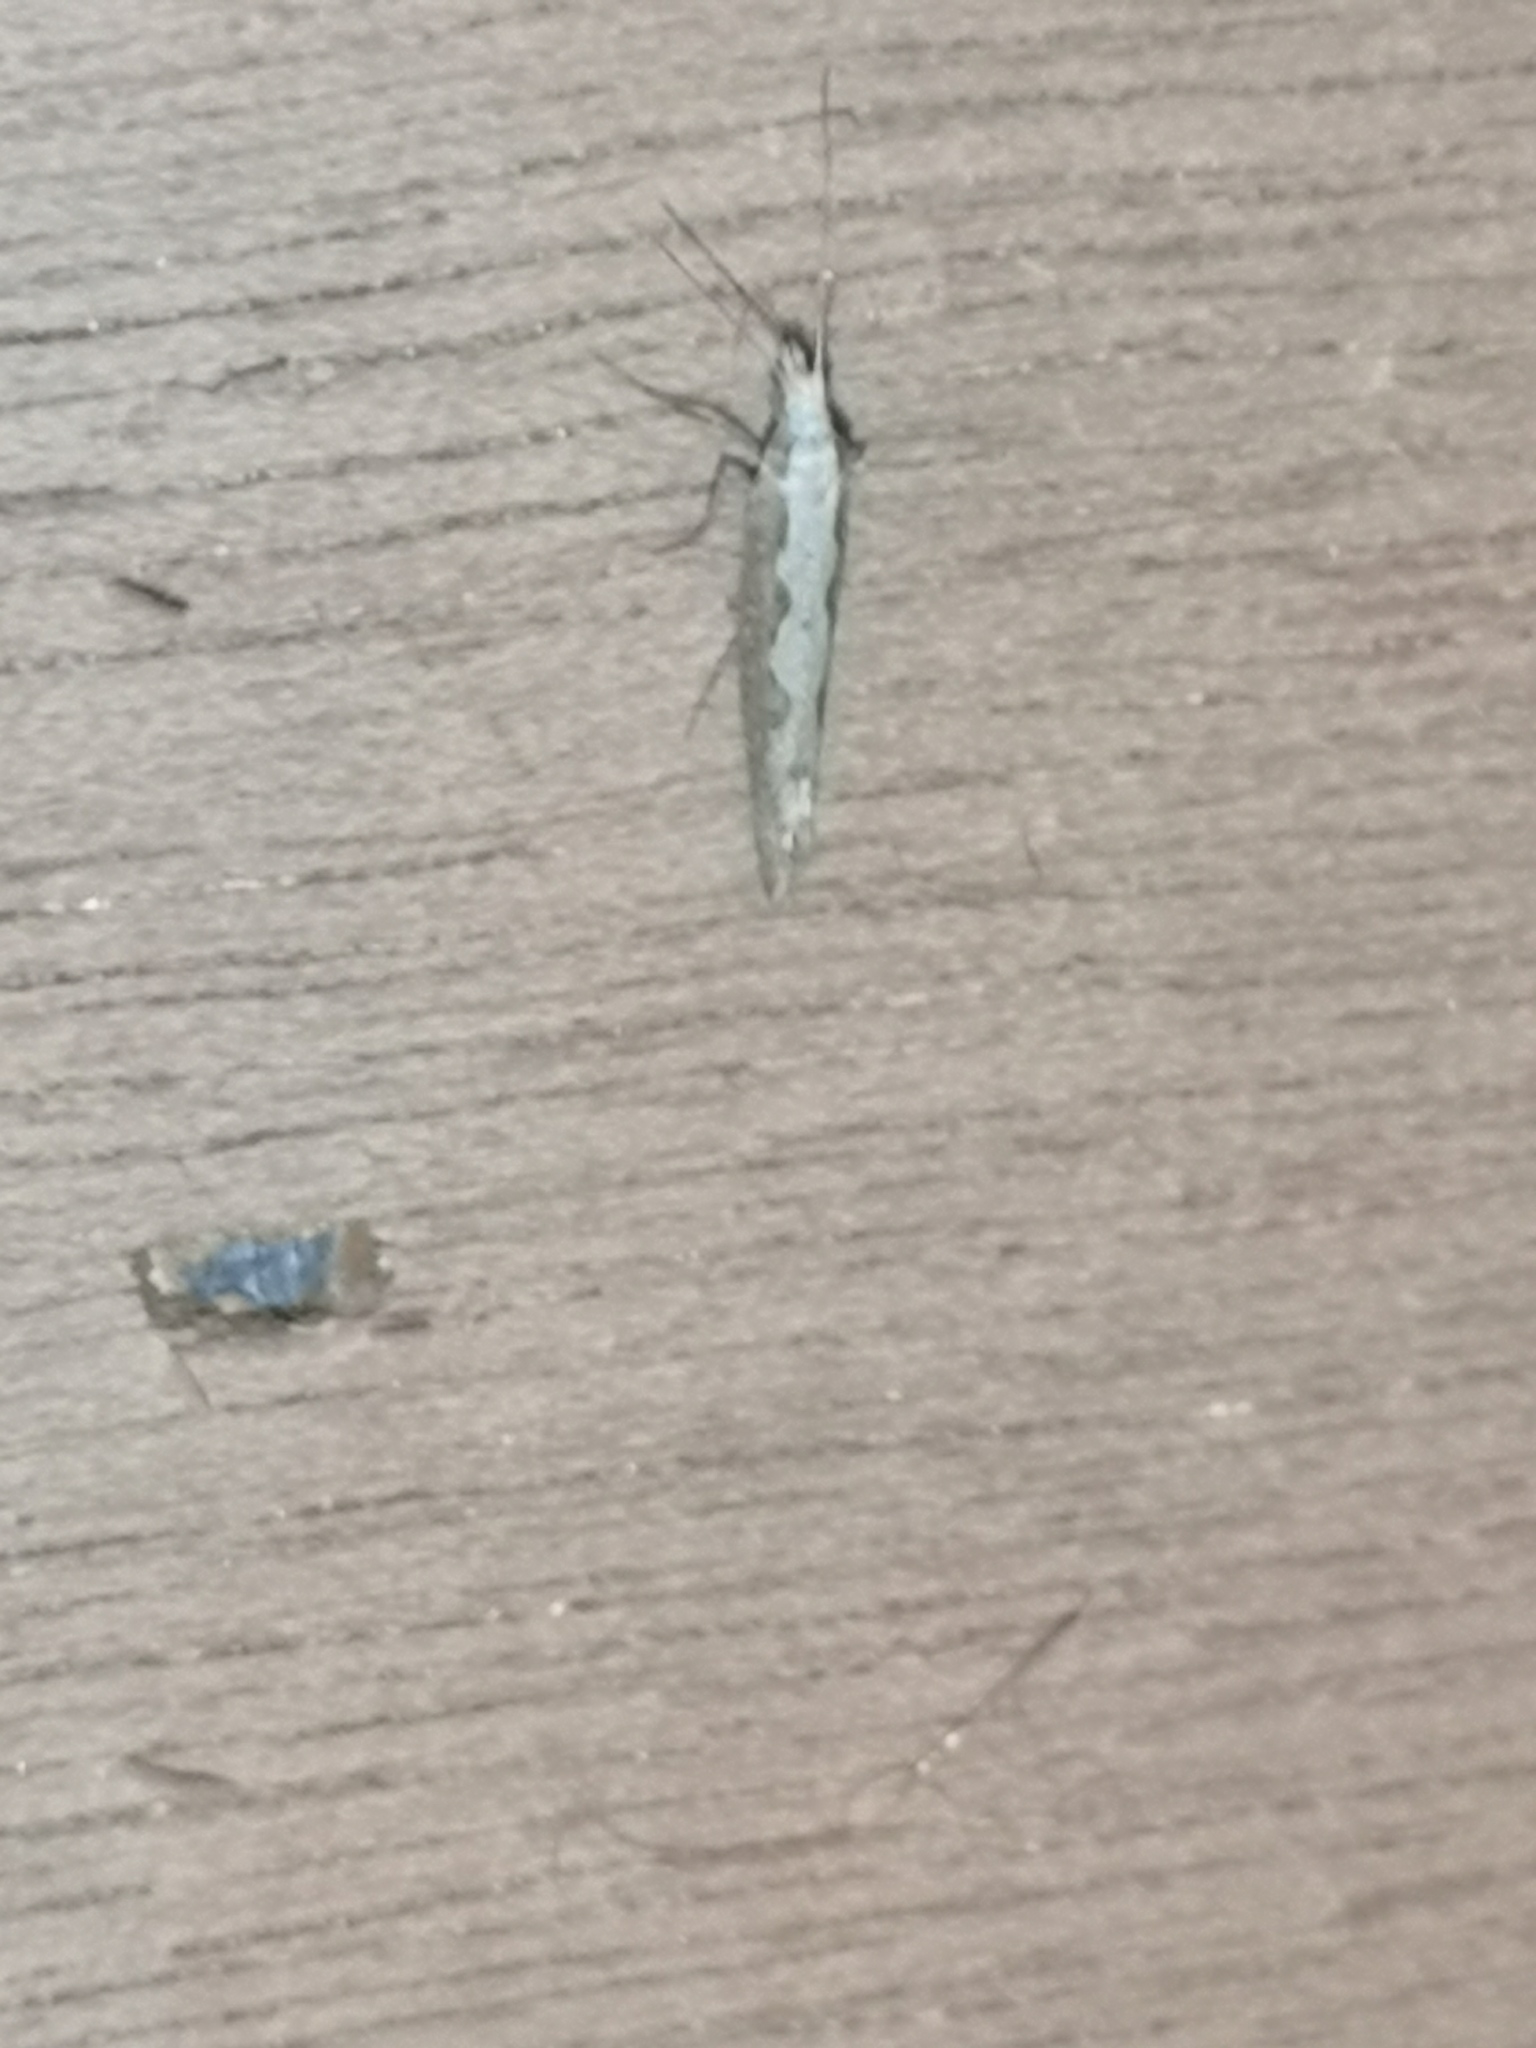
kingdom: Animalia
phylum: Arthropoda
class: Insecta
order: Lepidoptera
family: Plutellidae
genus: Plutella
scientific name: Plutella xylostella
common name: Diamond-back moth
